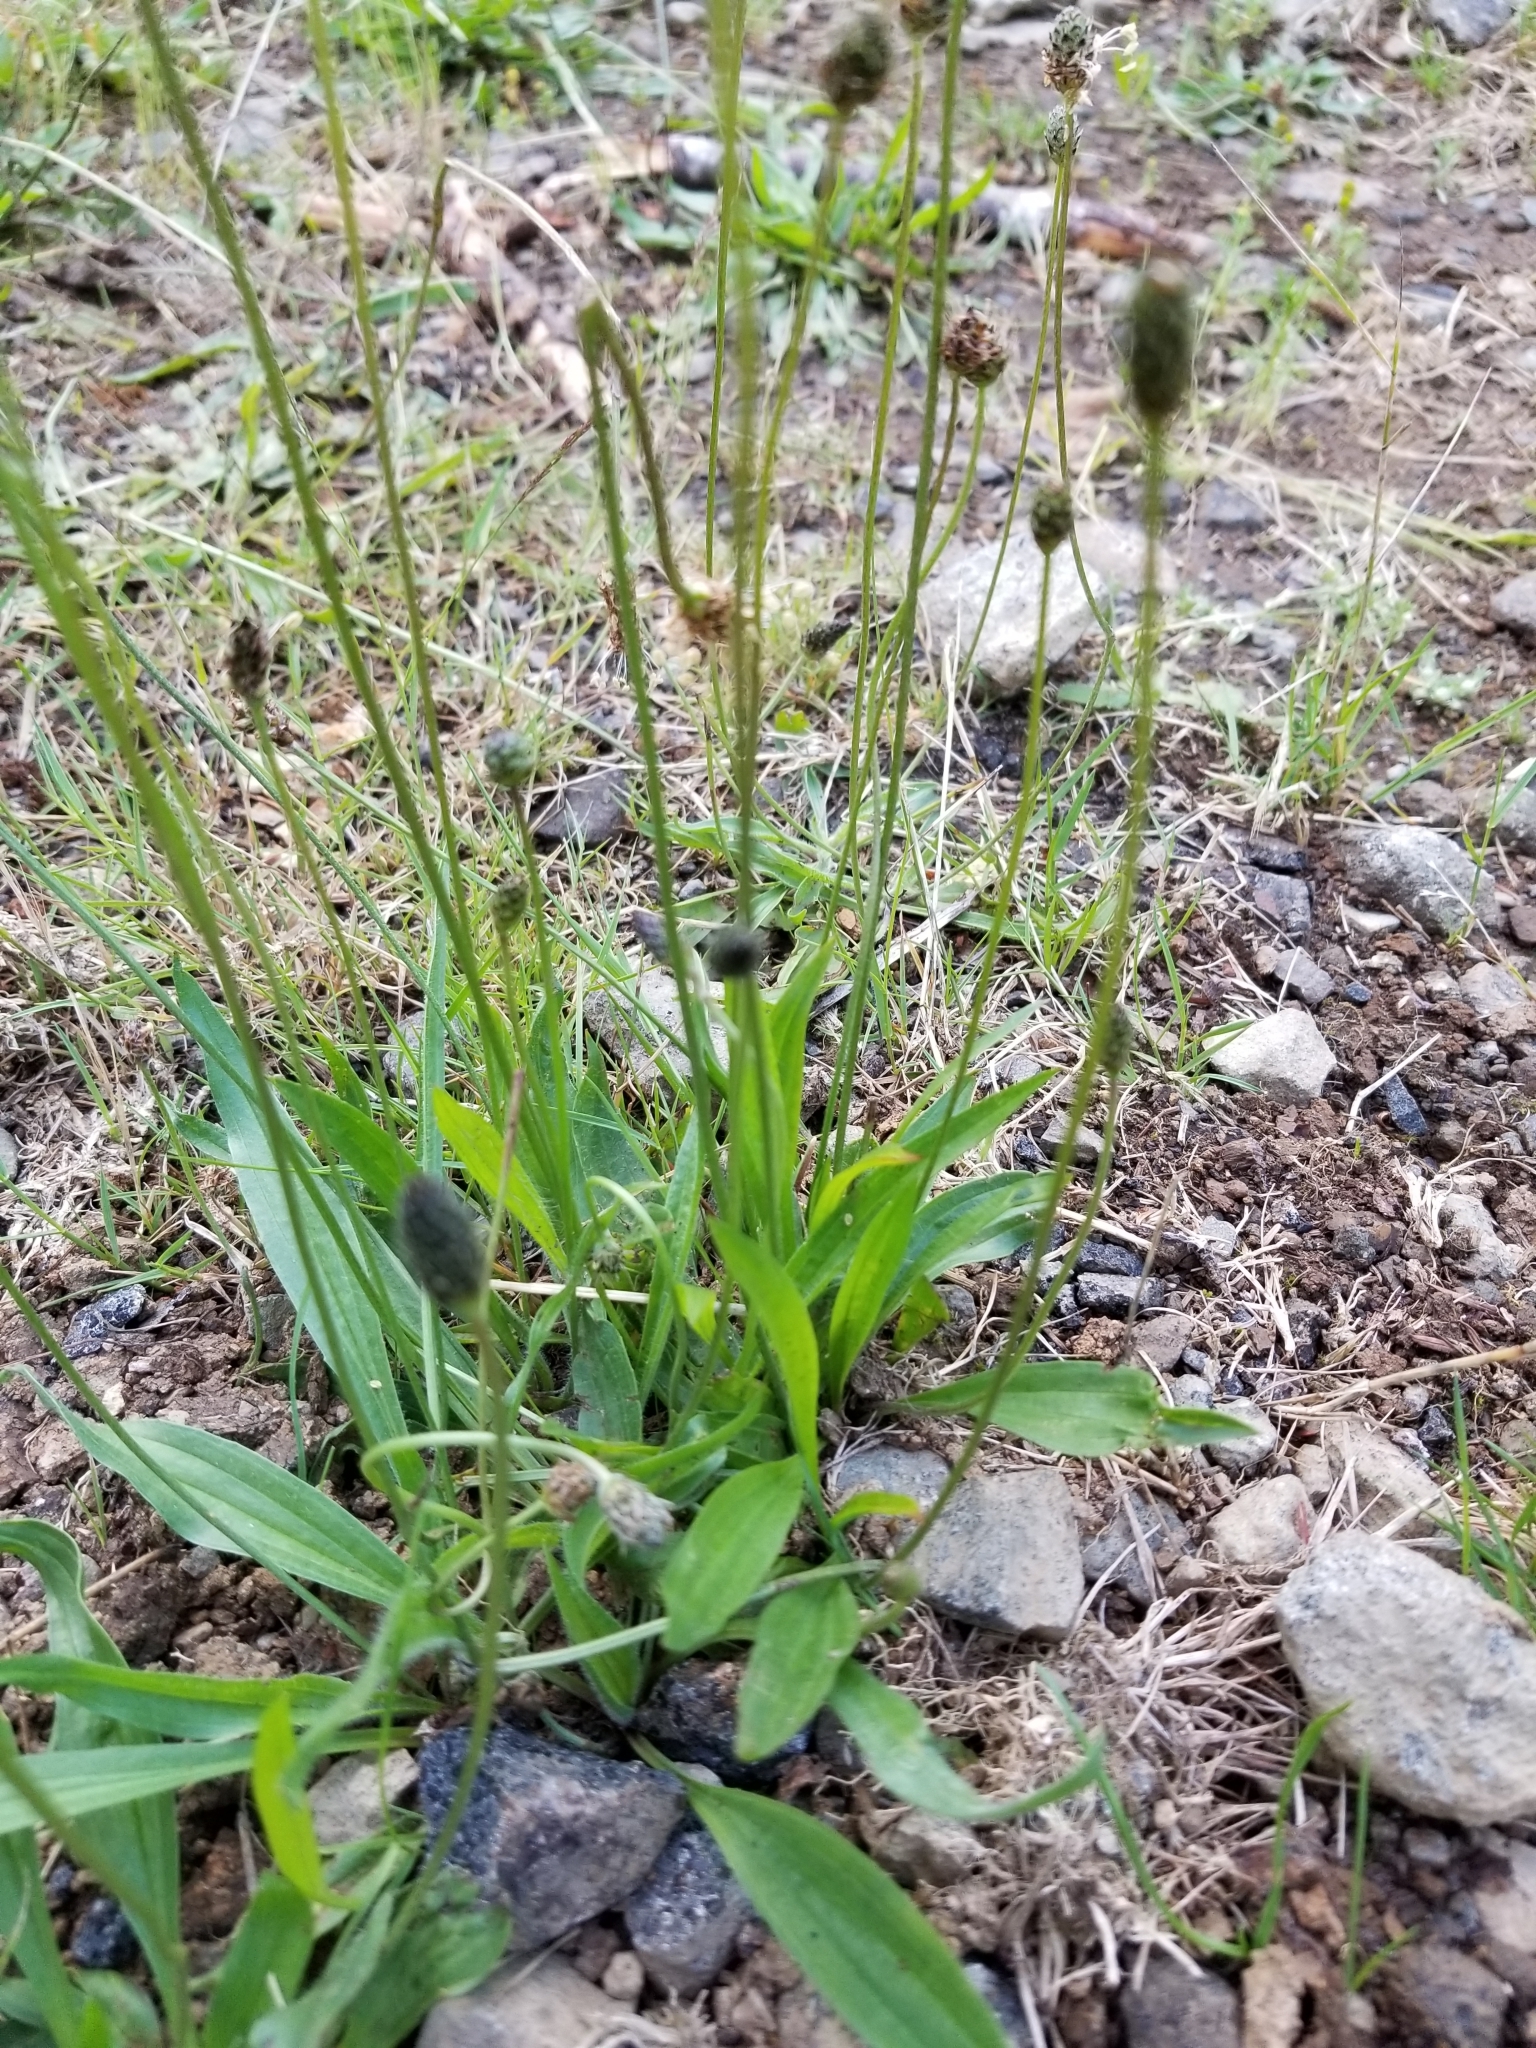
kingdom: Plantae
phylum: Tracheophyta
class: Magnoliopsida
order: Lamiales
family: Plantaginaceae
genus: Plantago
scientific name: Plantago lanceolata
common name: Ribwort plantain
